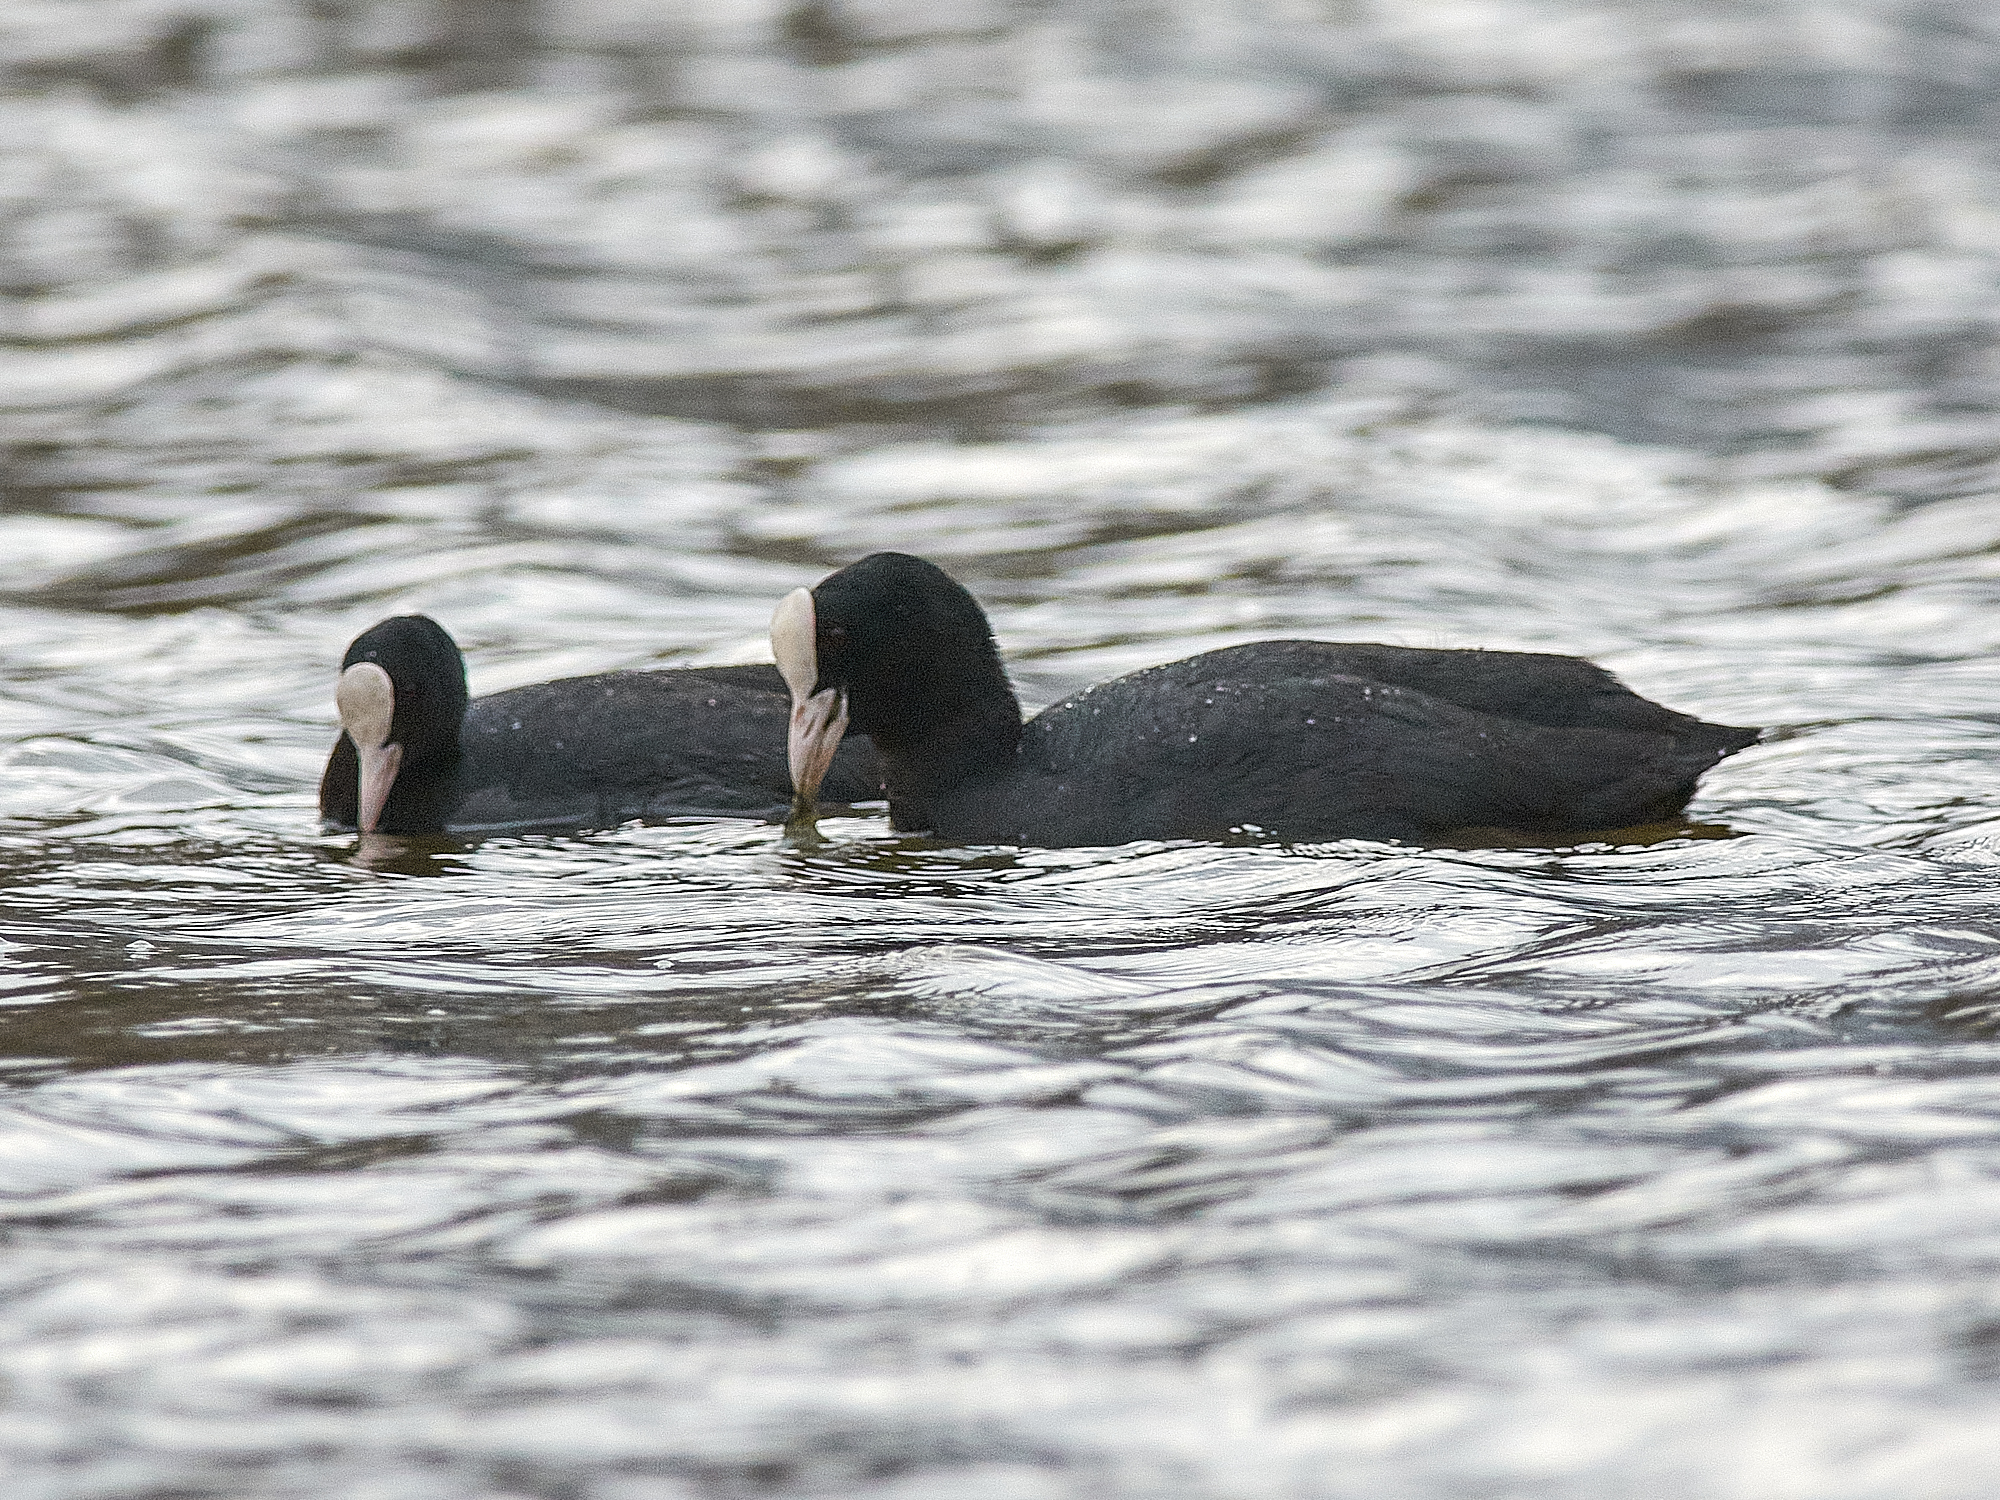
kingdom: Animalia
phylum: Chordata
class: Aves
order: Gruiformes
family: Rallidae
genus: Fulica
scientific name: Fulica atra
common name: Eurasian coot
